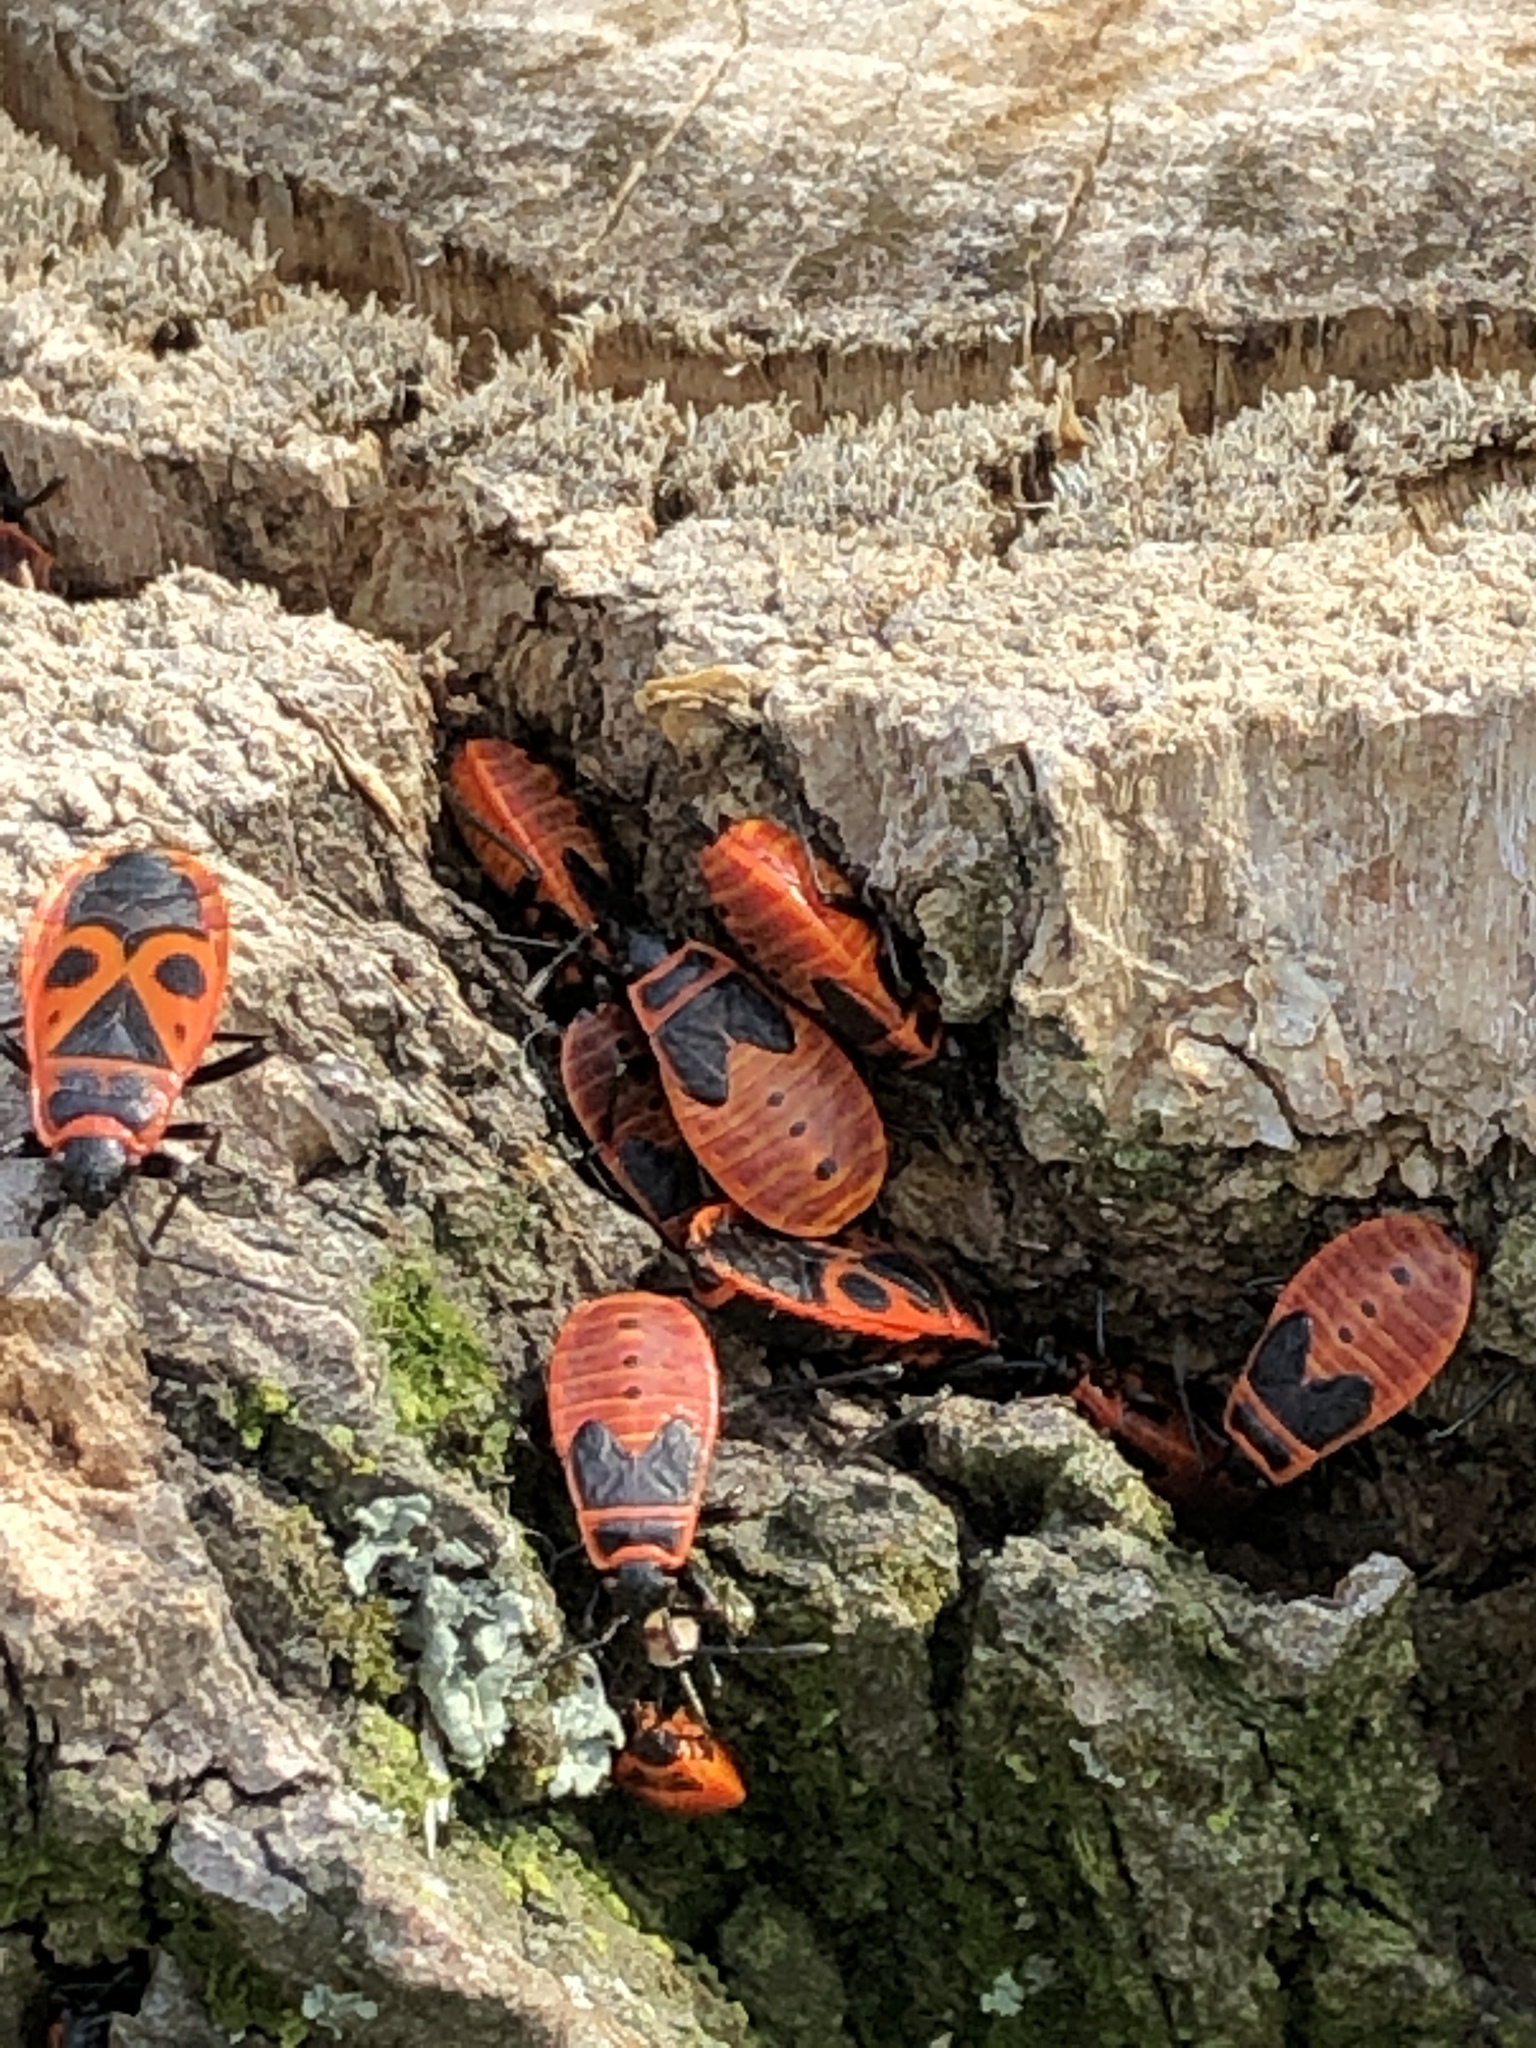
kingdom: Animalia
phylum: Arthropoda
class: Insecta
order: Hemiptera
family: Pyrrhocoridae
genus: Pyrrhocoris
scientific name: Pyrrhocoris apterus
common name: Firebug
